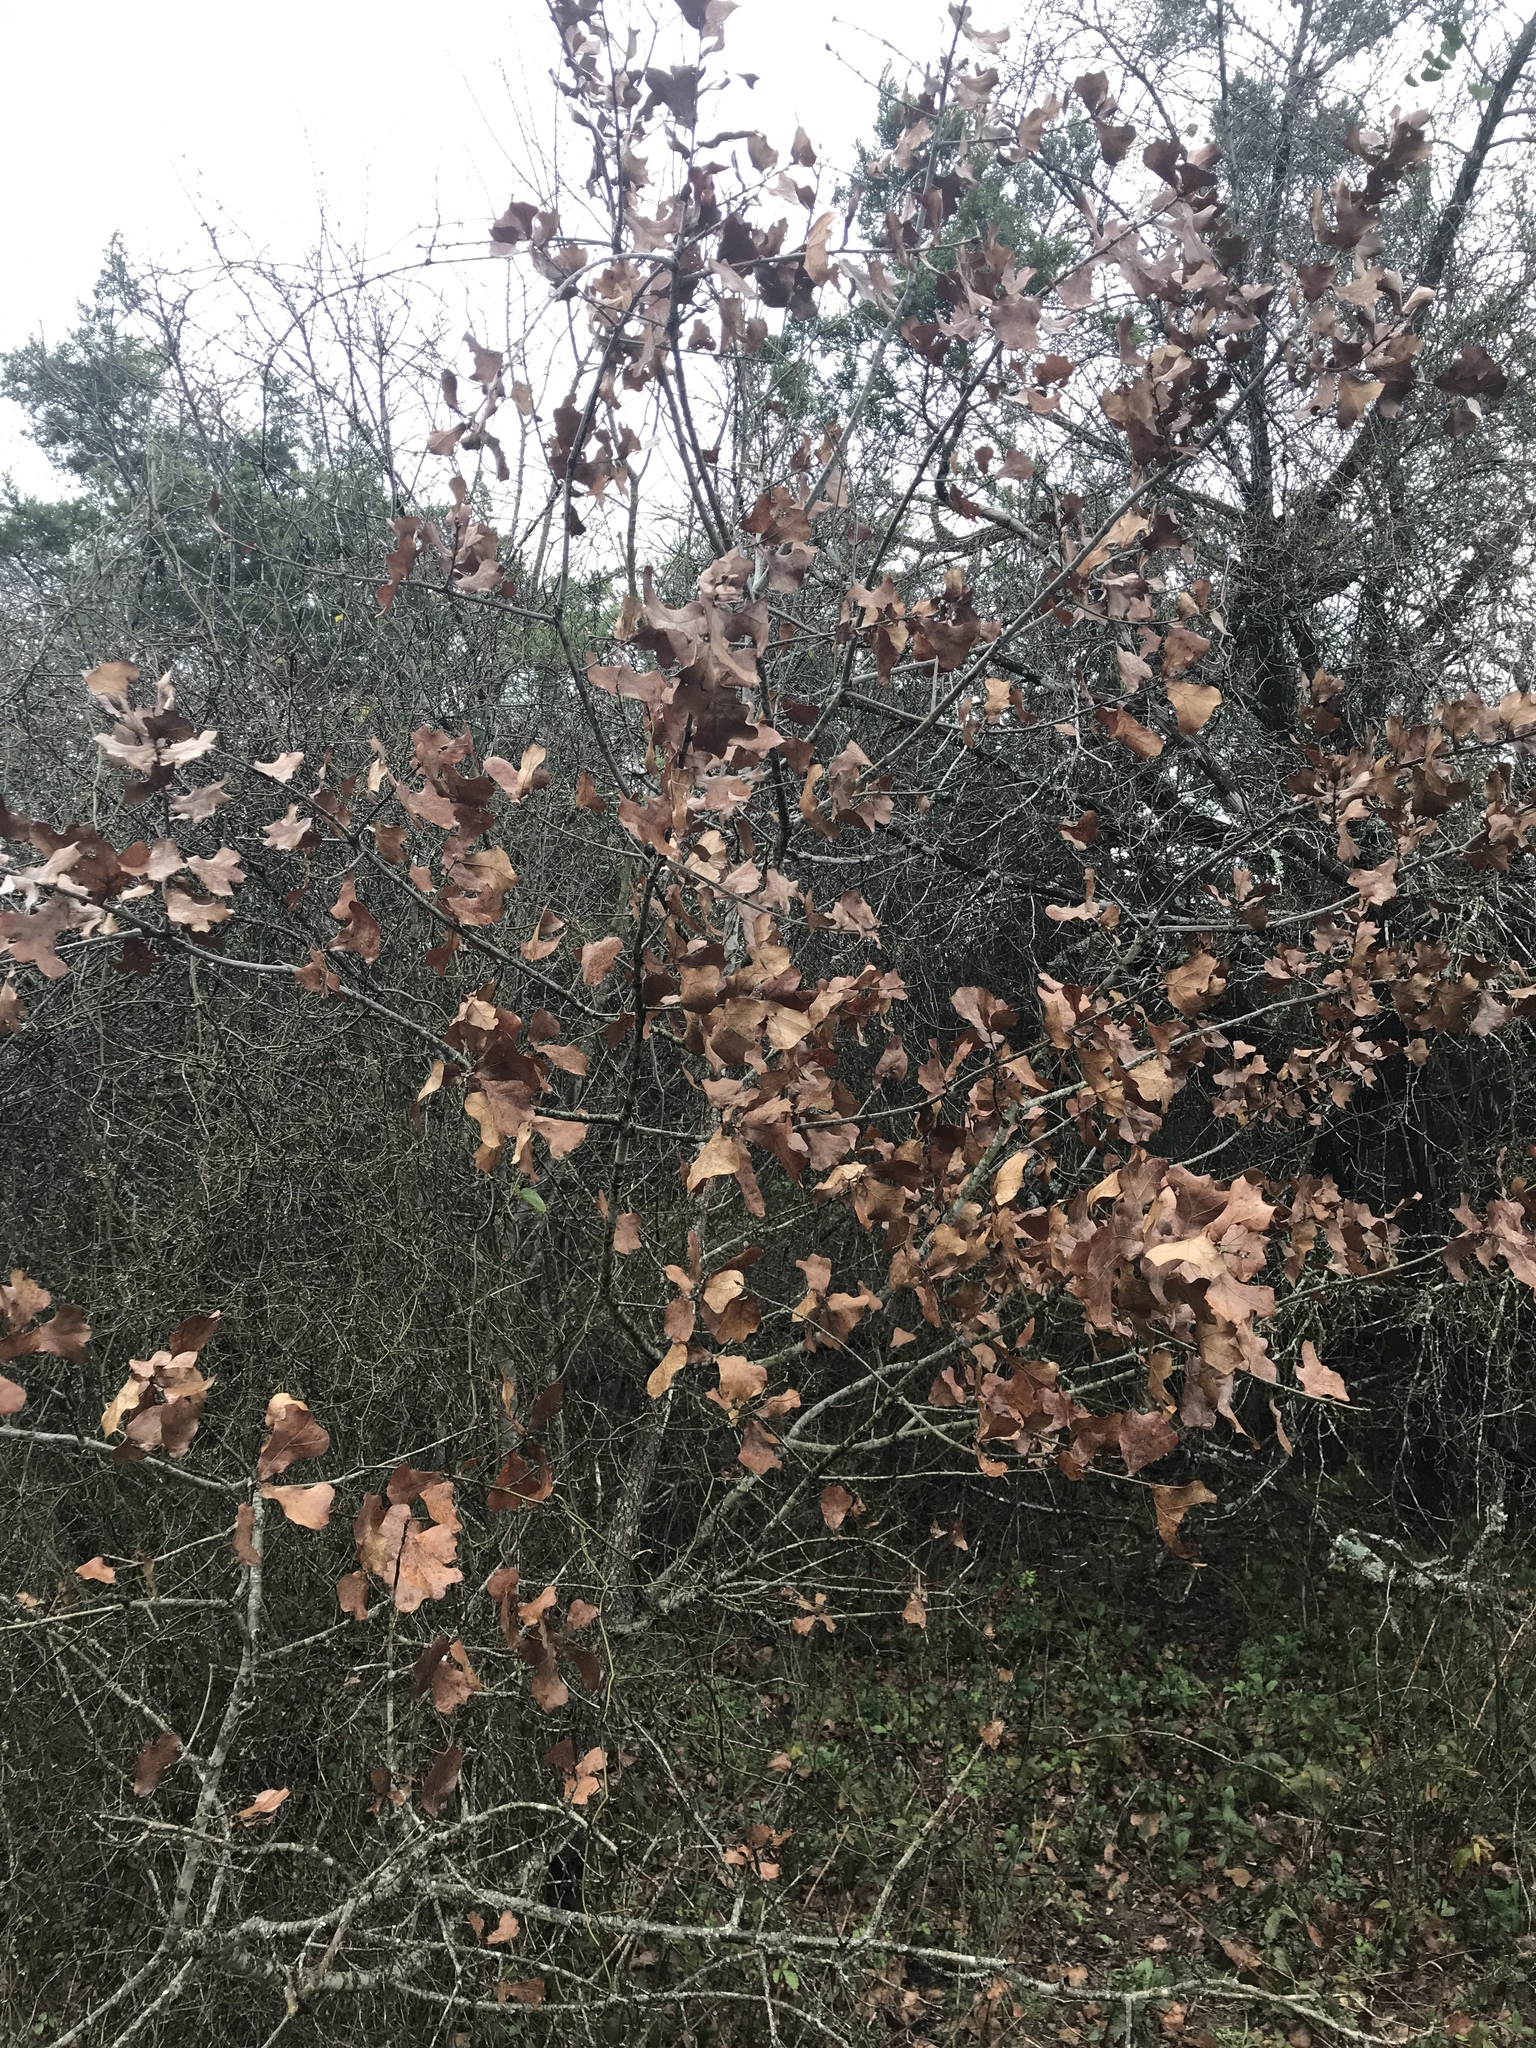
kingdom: Plantae
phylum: Tracheophyta
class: Magnoliopsida
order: Fagales
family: Fagaceae
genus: Quercus
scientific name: Quercus marilandica
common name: Blackjack oak
